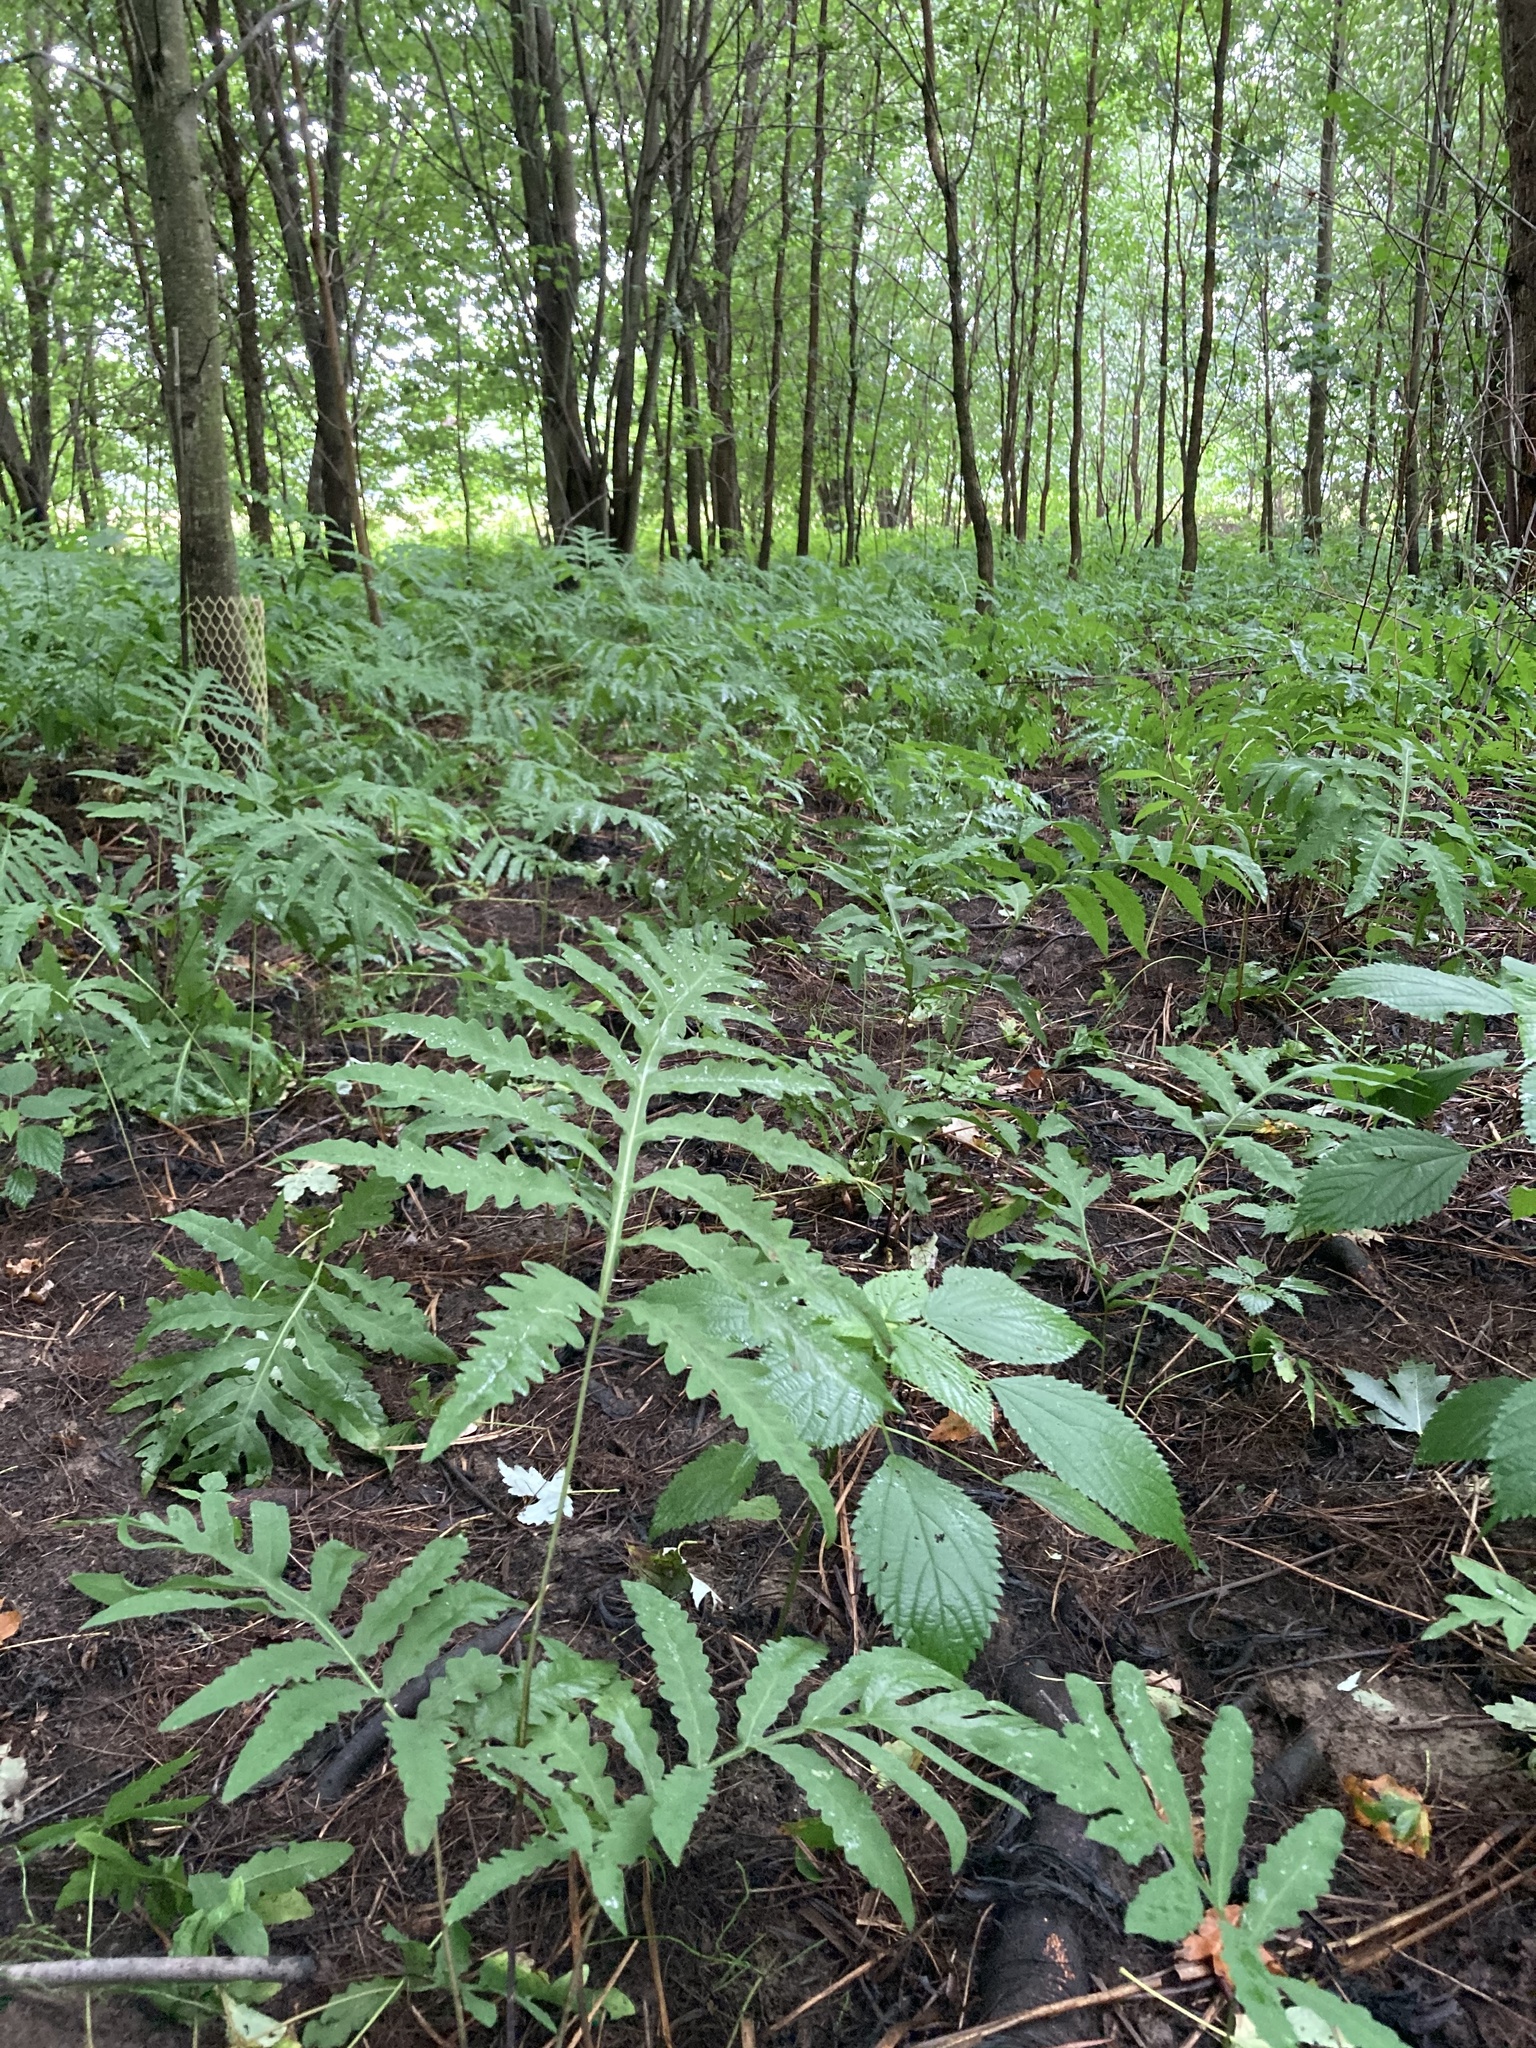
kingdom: Plantae
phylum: Tracheophyta
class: Polypodiopsida
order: Polypodiales
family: Onocleaceae
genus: Onoclea
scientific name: Onoclea sensibilis
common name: Sensitive fern
